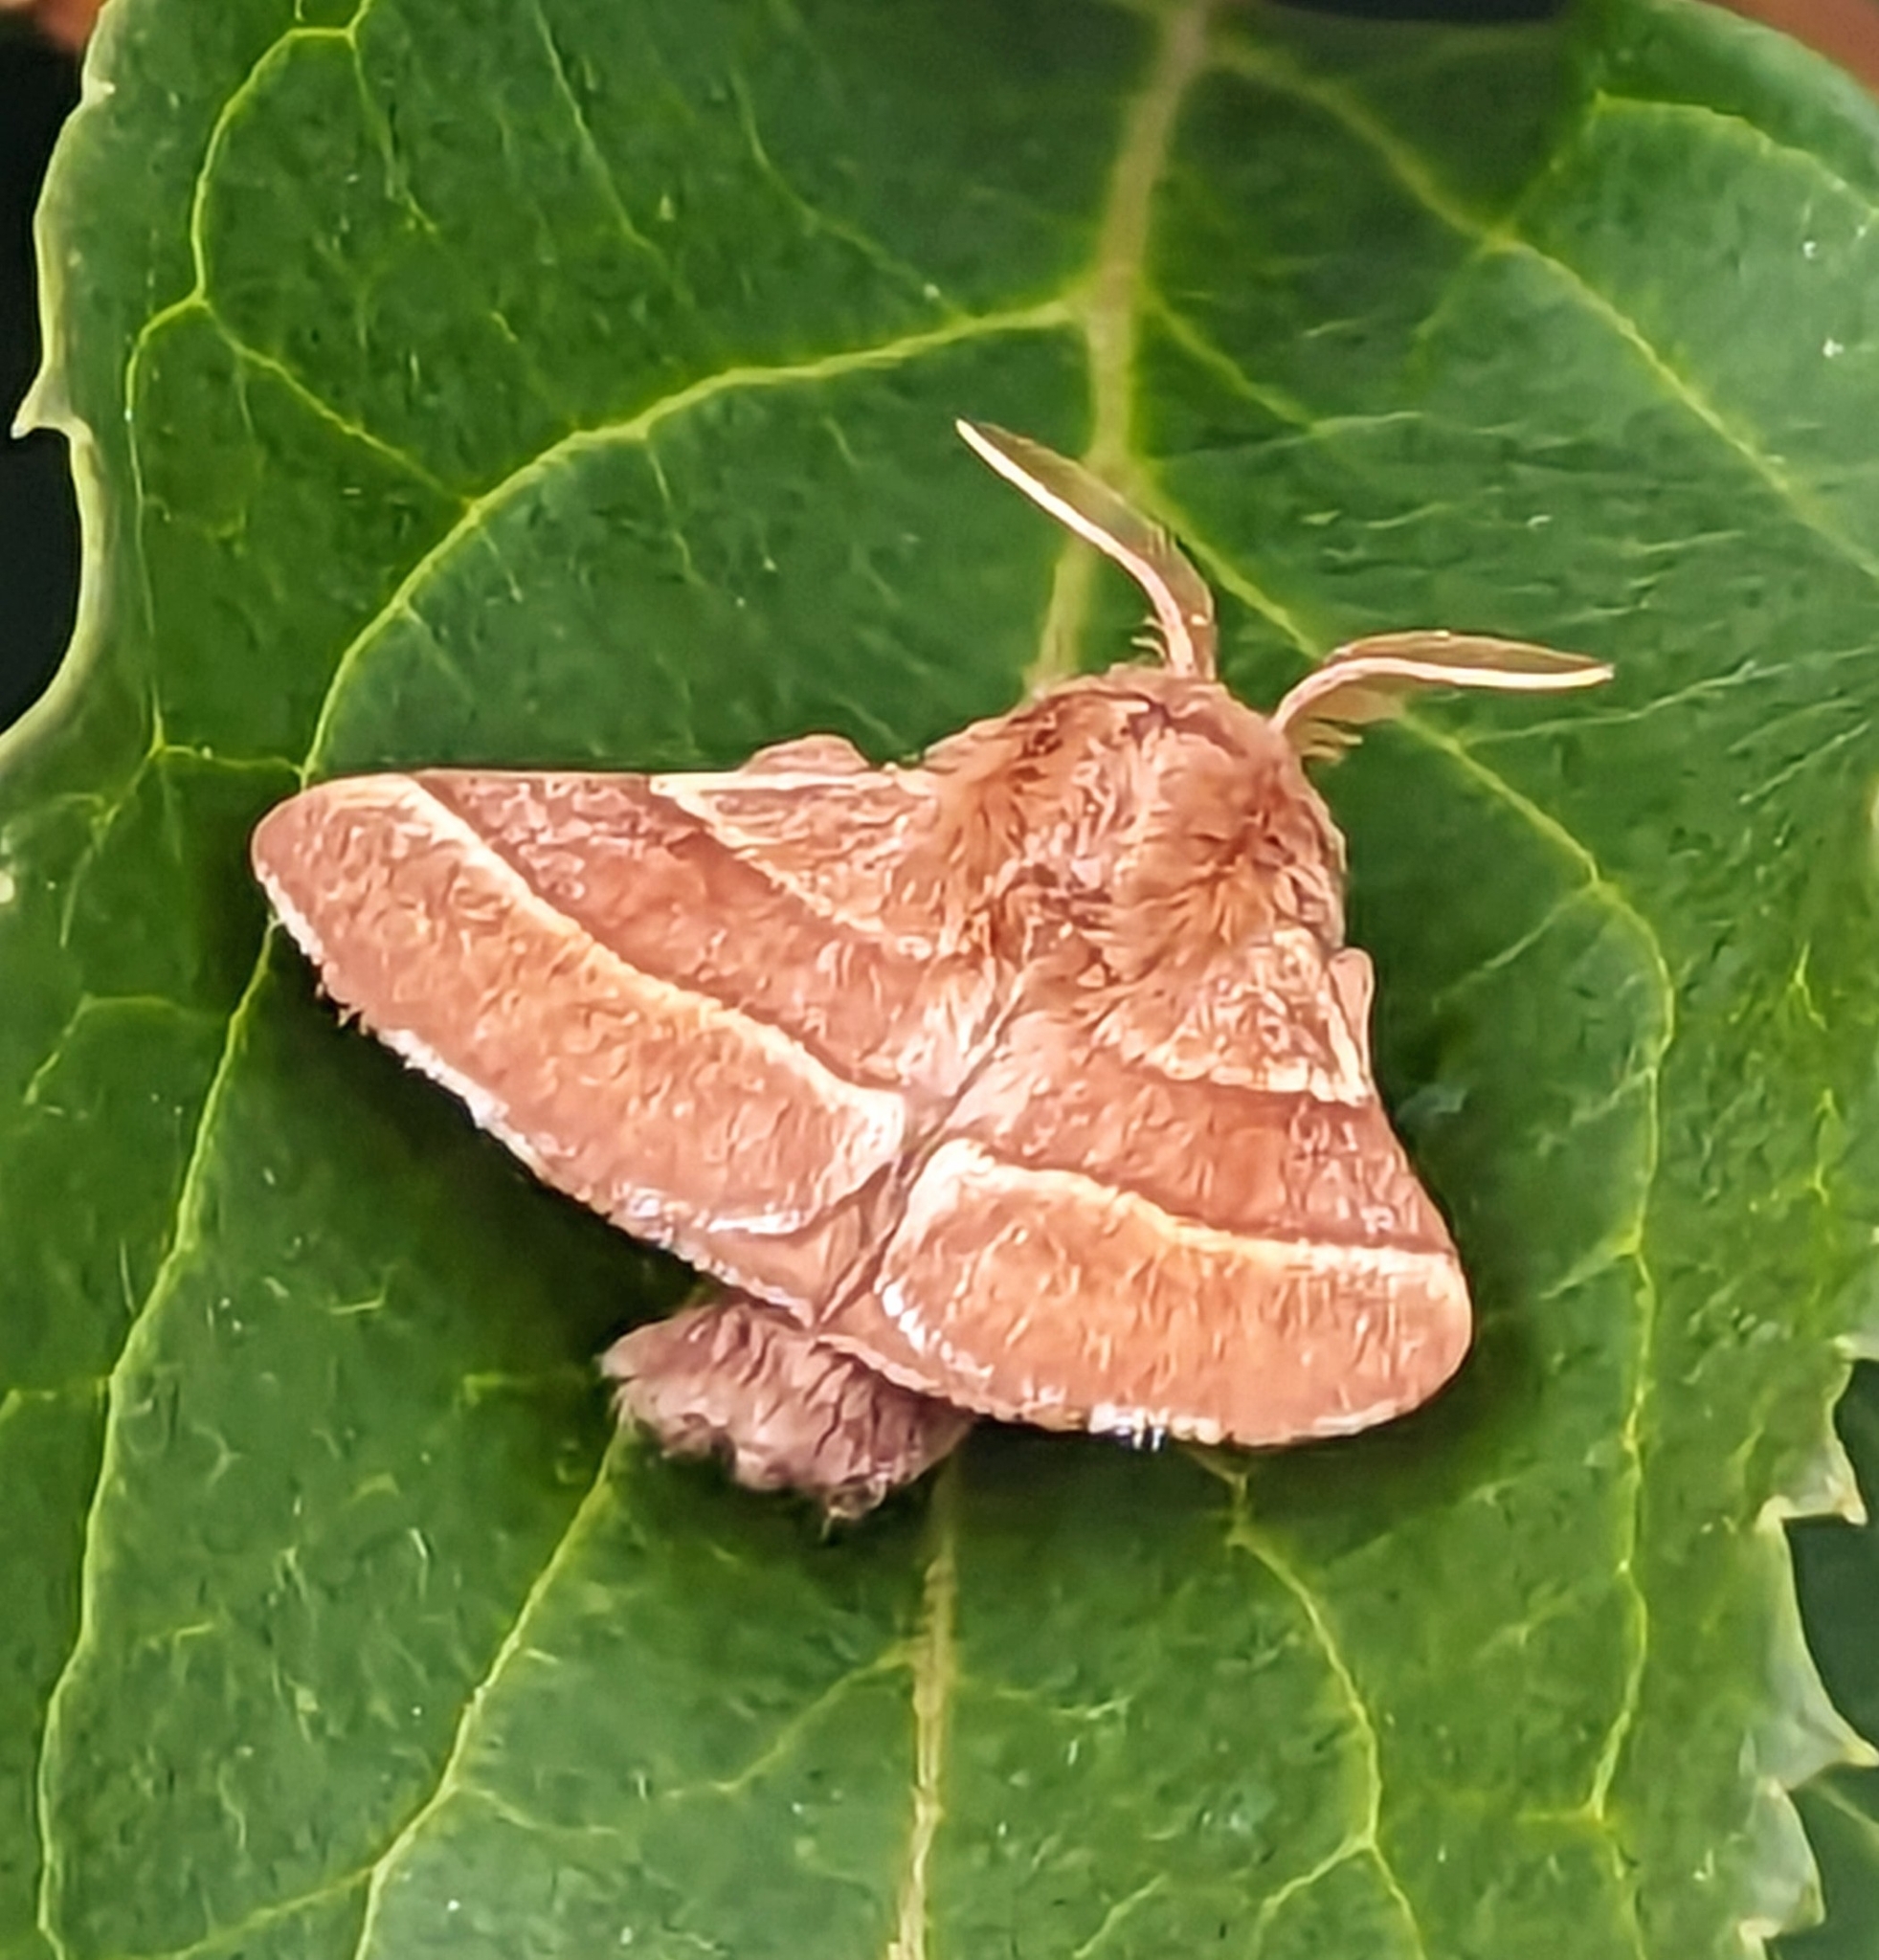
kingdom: Animalia
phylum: Arthropoda
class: Insecta
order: Lepidoptera
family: Lasiocampidae
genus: Malacosoma
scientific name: Malacosoma neustria
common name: The lackey
